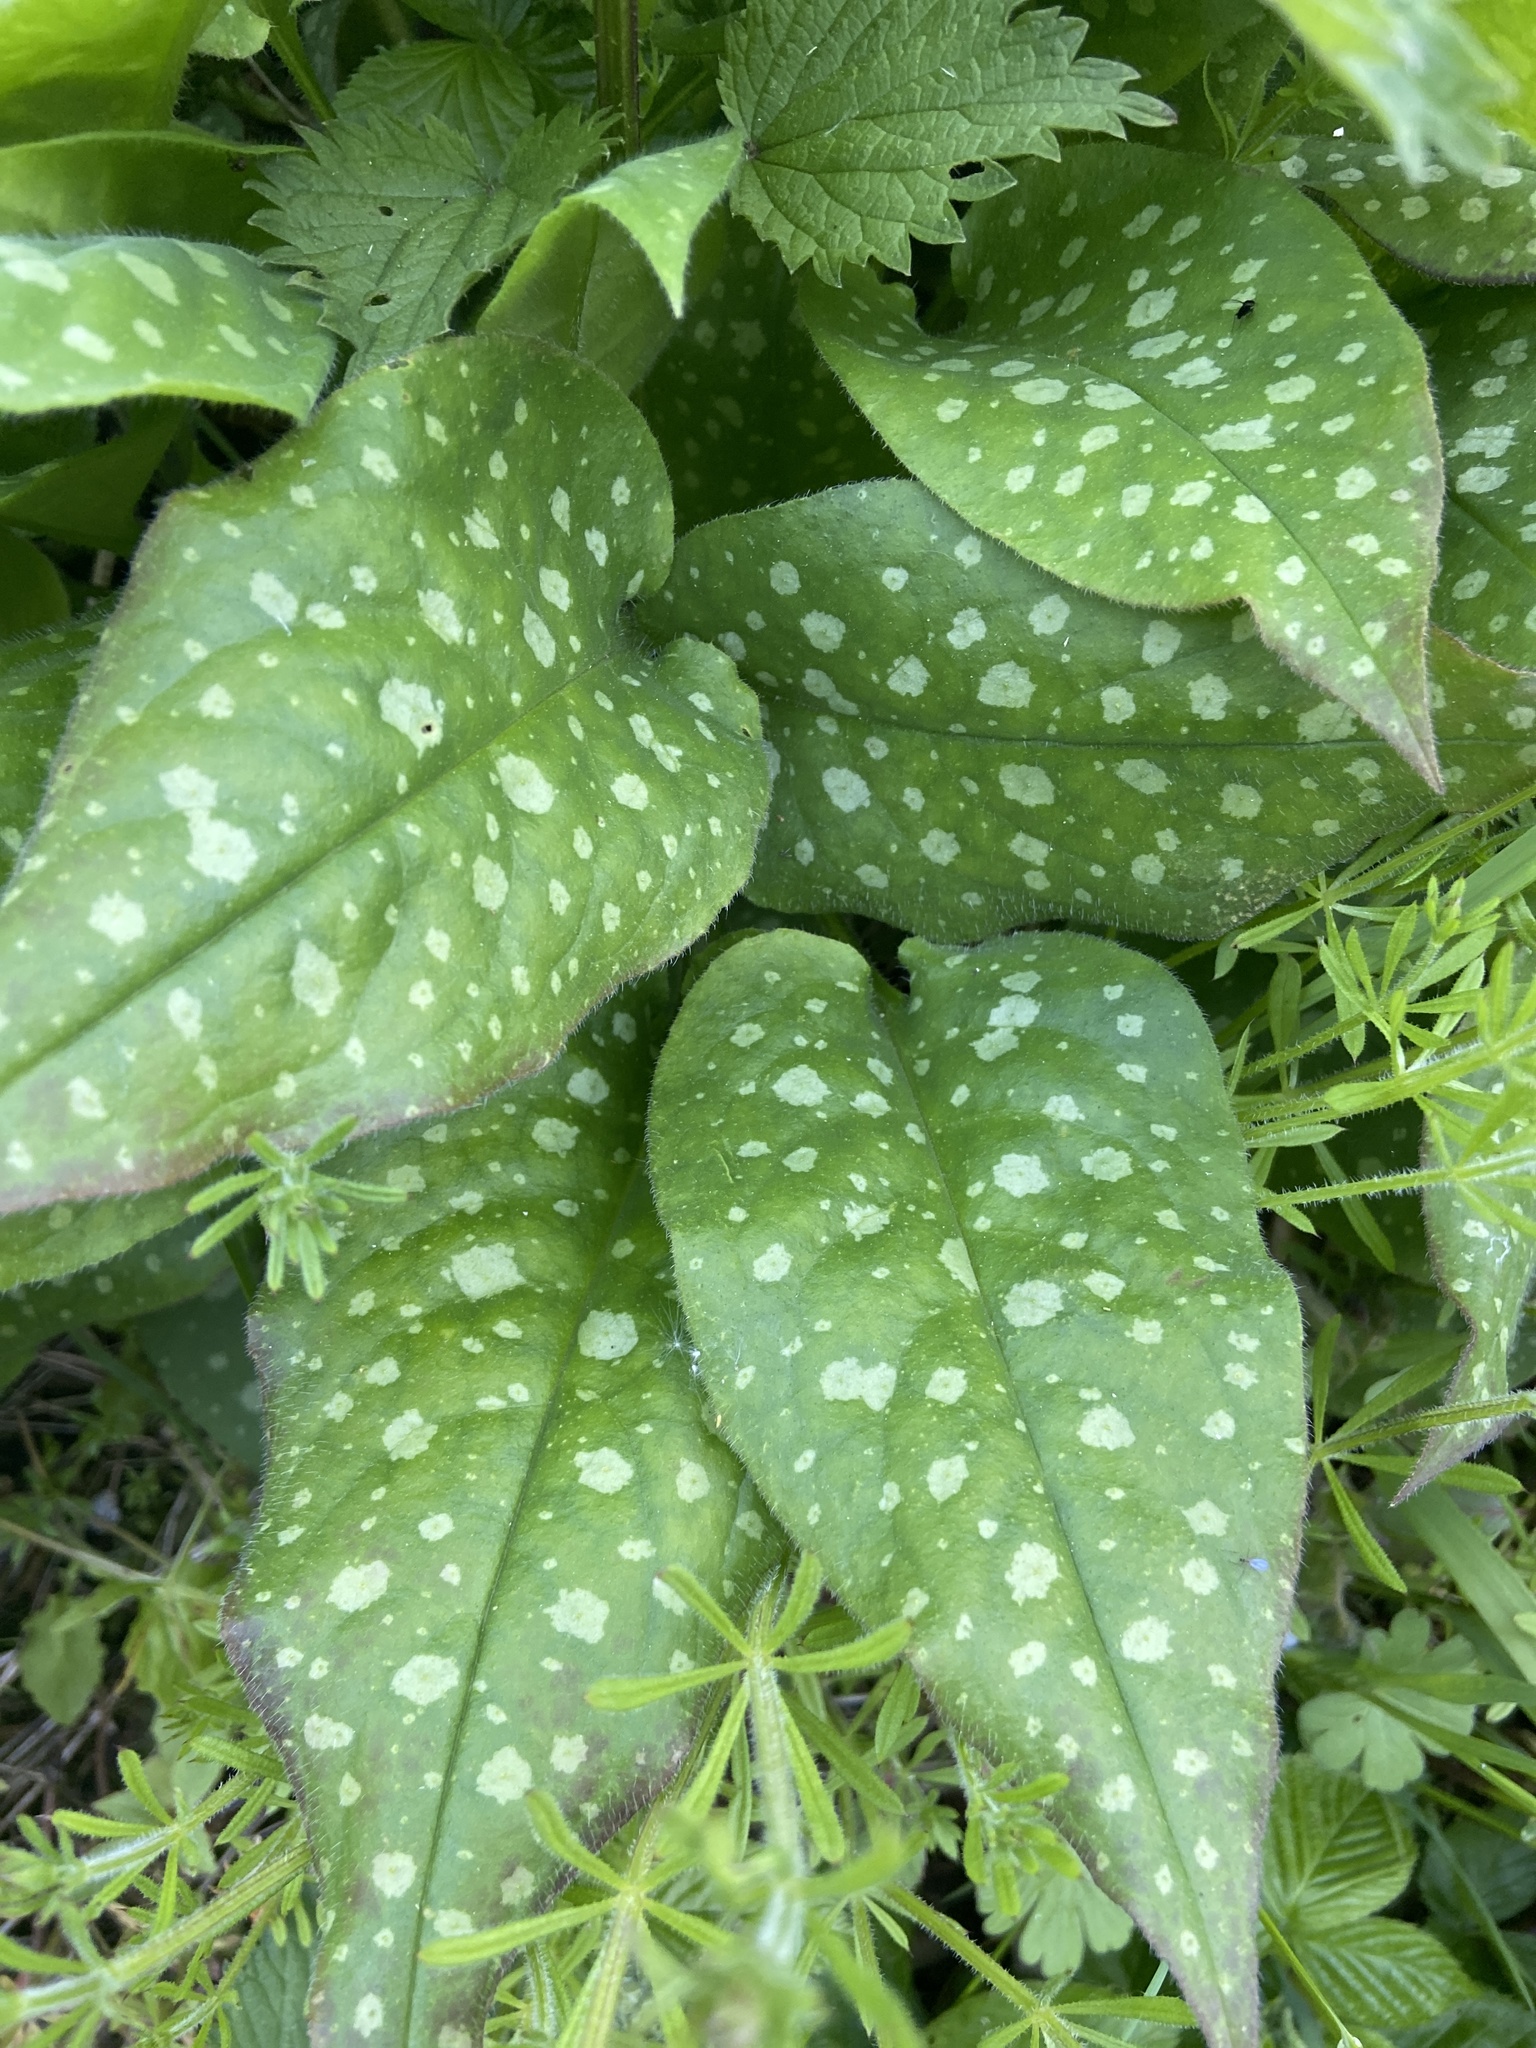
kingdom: Plantae
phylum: Tracheophyta
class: Magnoliopsida
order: Boraginales
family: Boraginaceae
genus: Pulmonaria
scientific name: Pulmonaria saccharata
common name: Bethlehem lungwort
